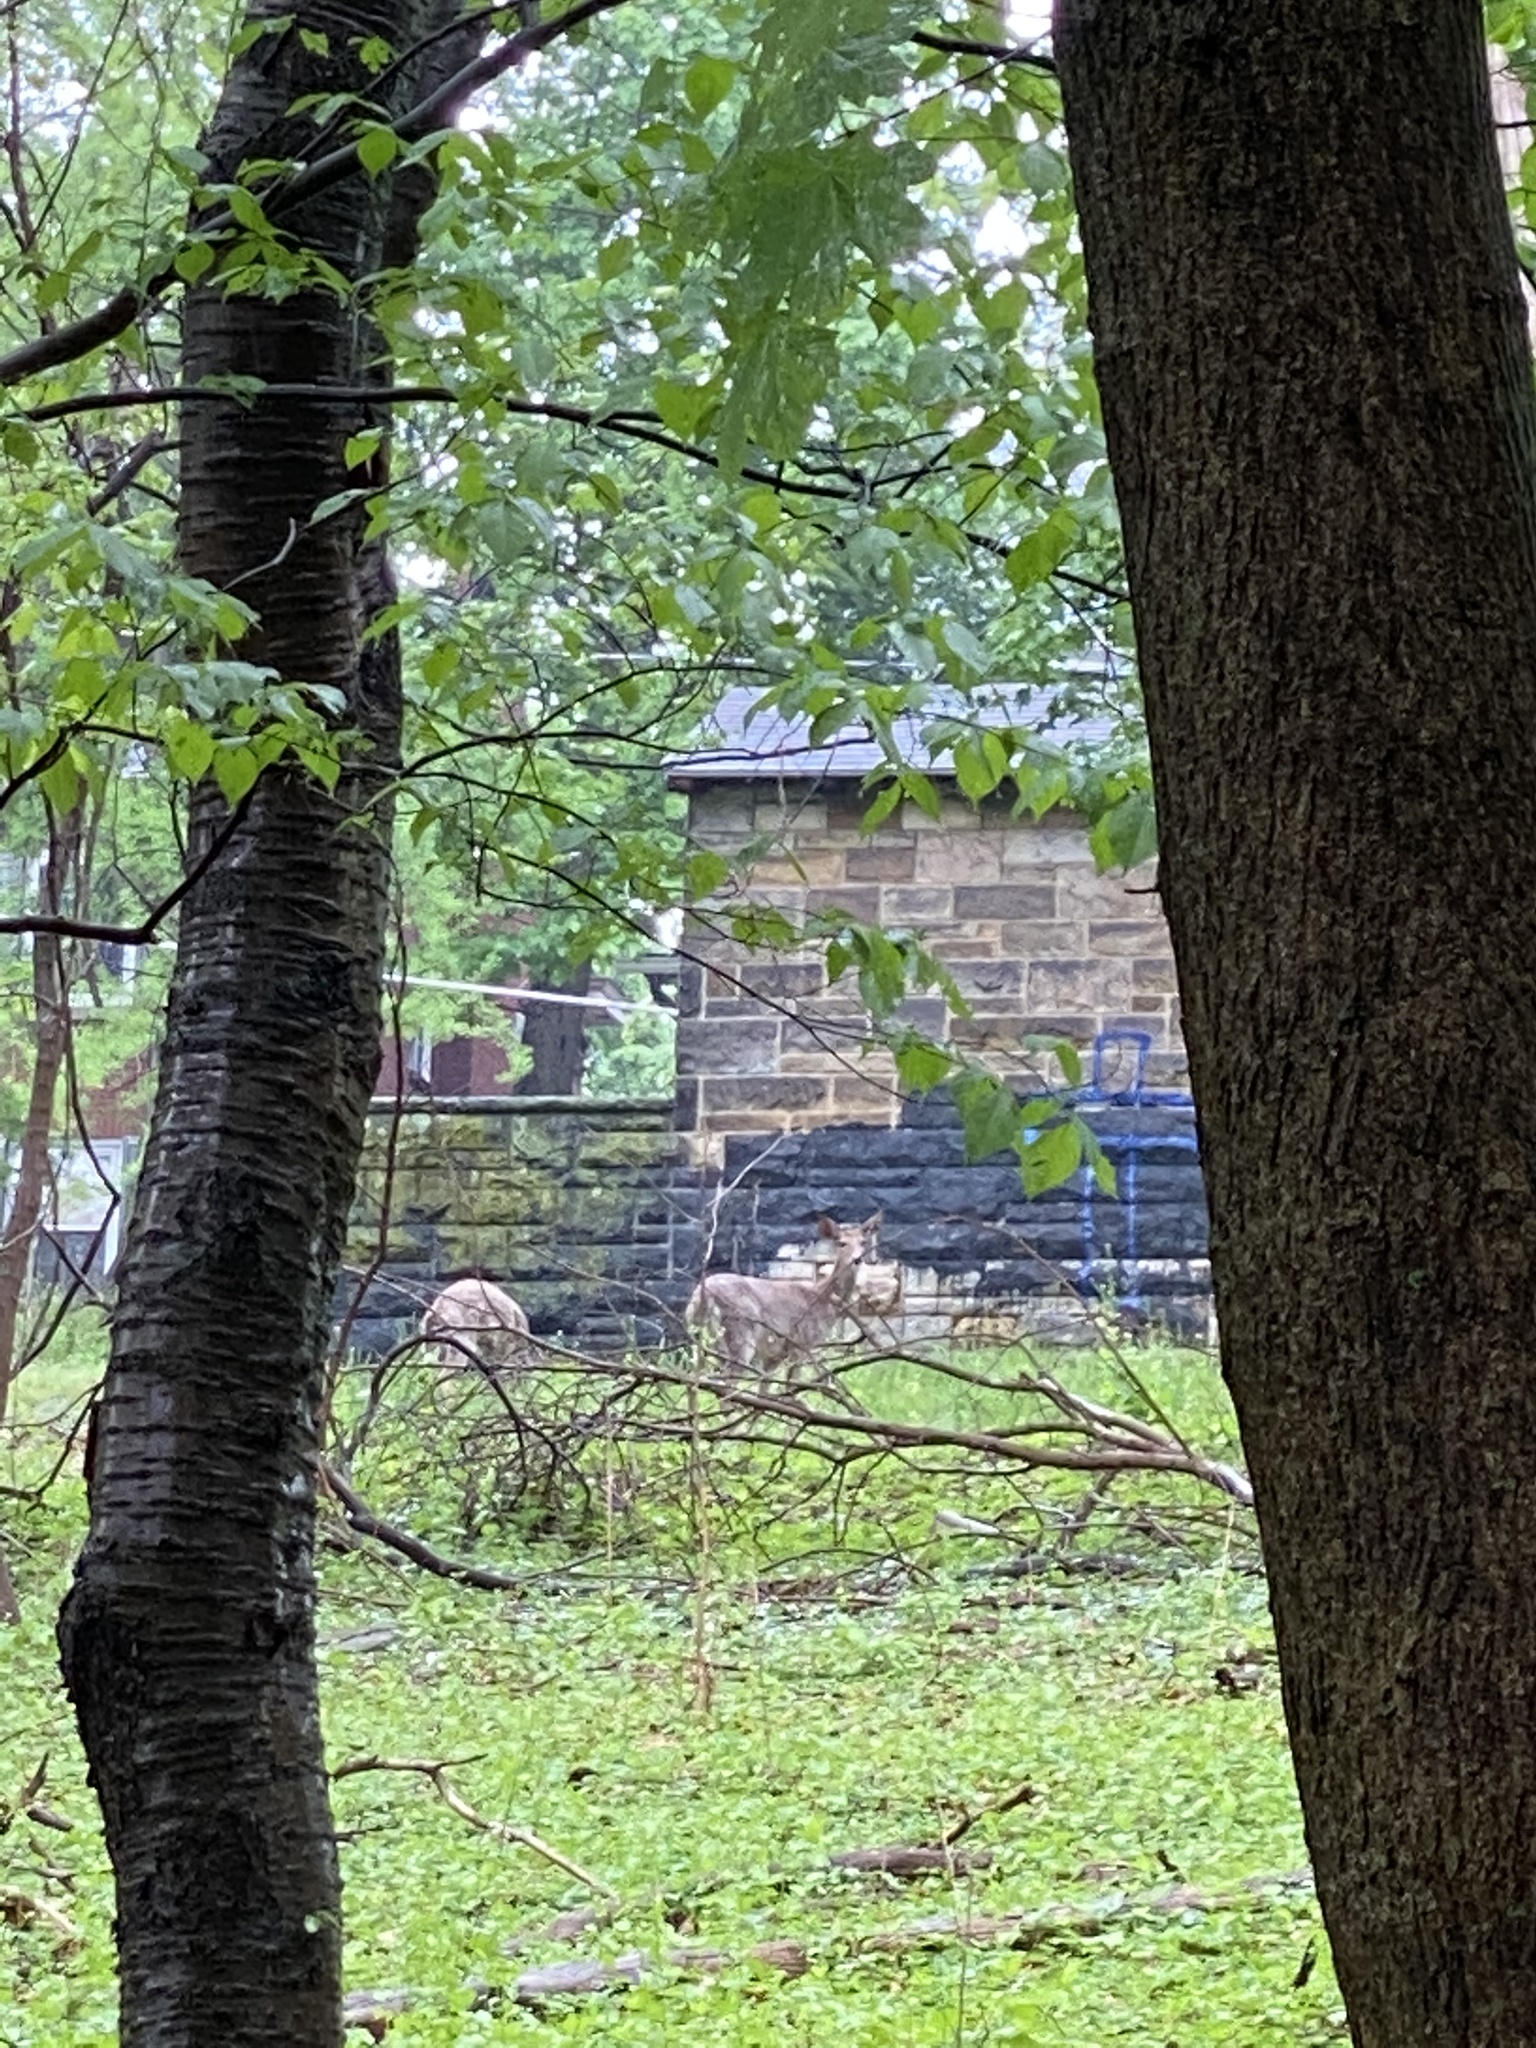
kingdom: Animalia
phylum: Chordata
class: Mammalia
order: Artiodactyla
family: Cervidae
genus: Odocoileus
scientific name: Odocoileus virginianus
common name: White-tailed deer
